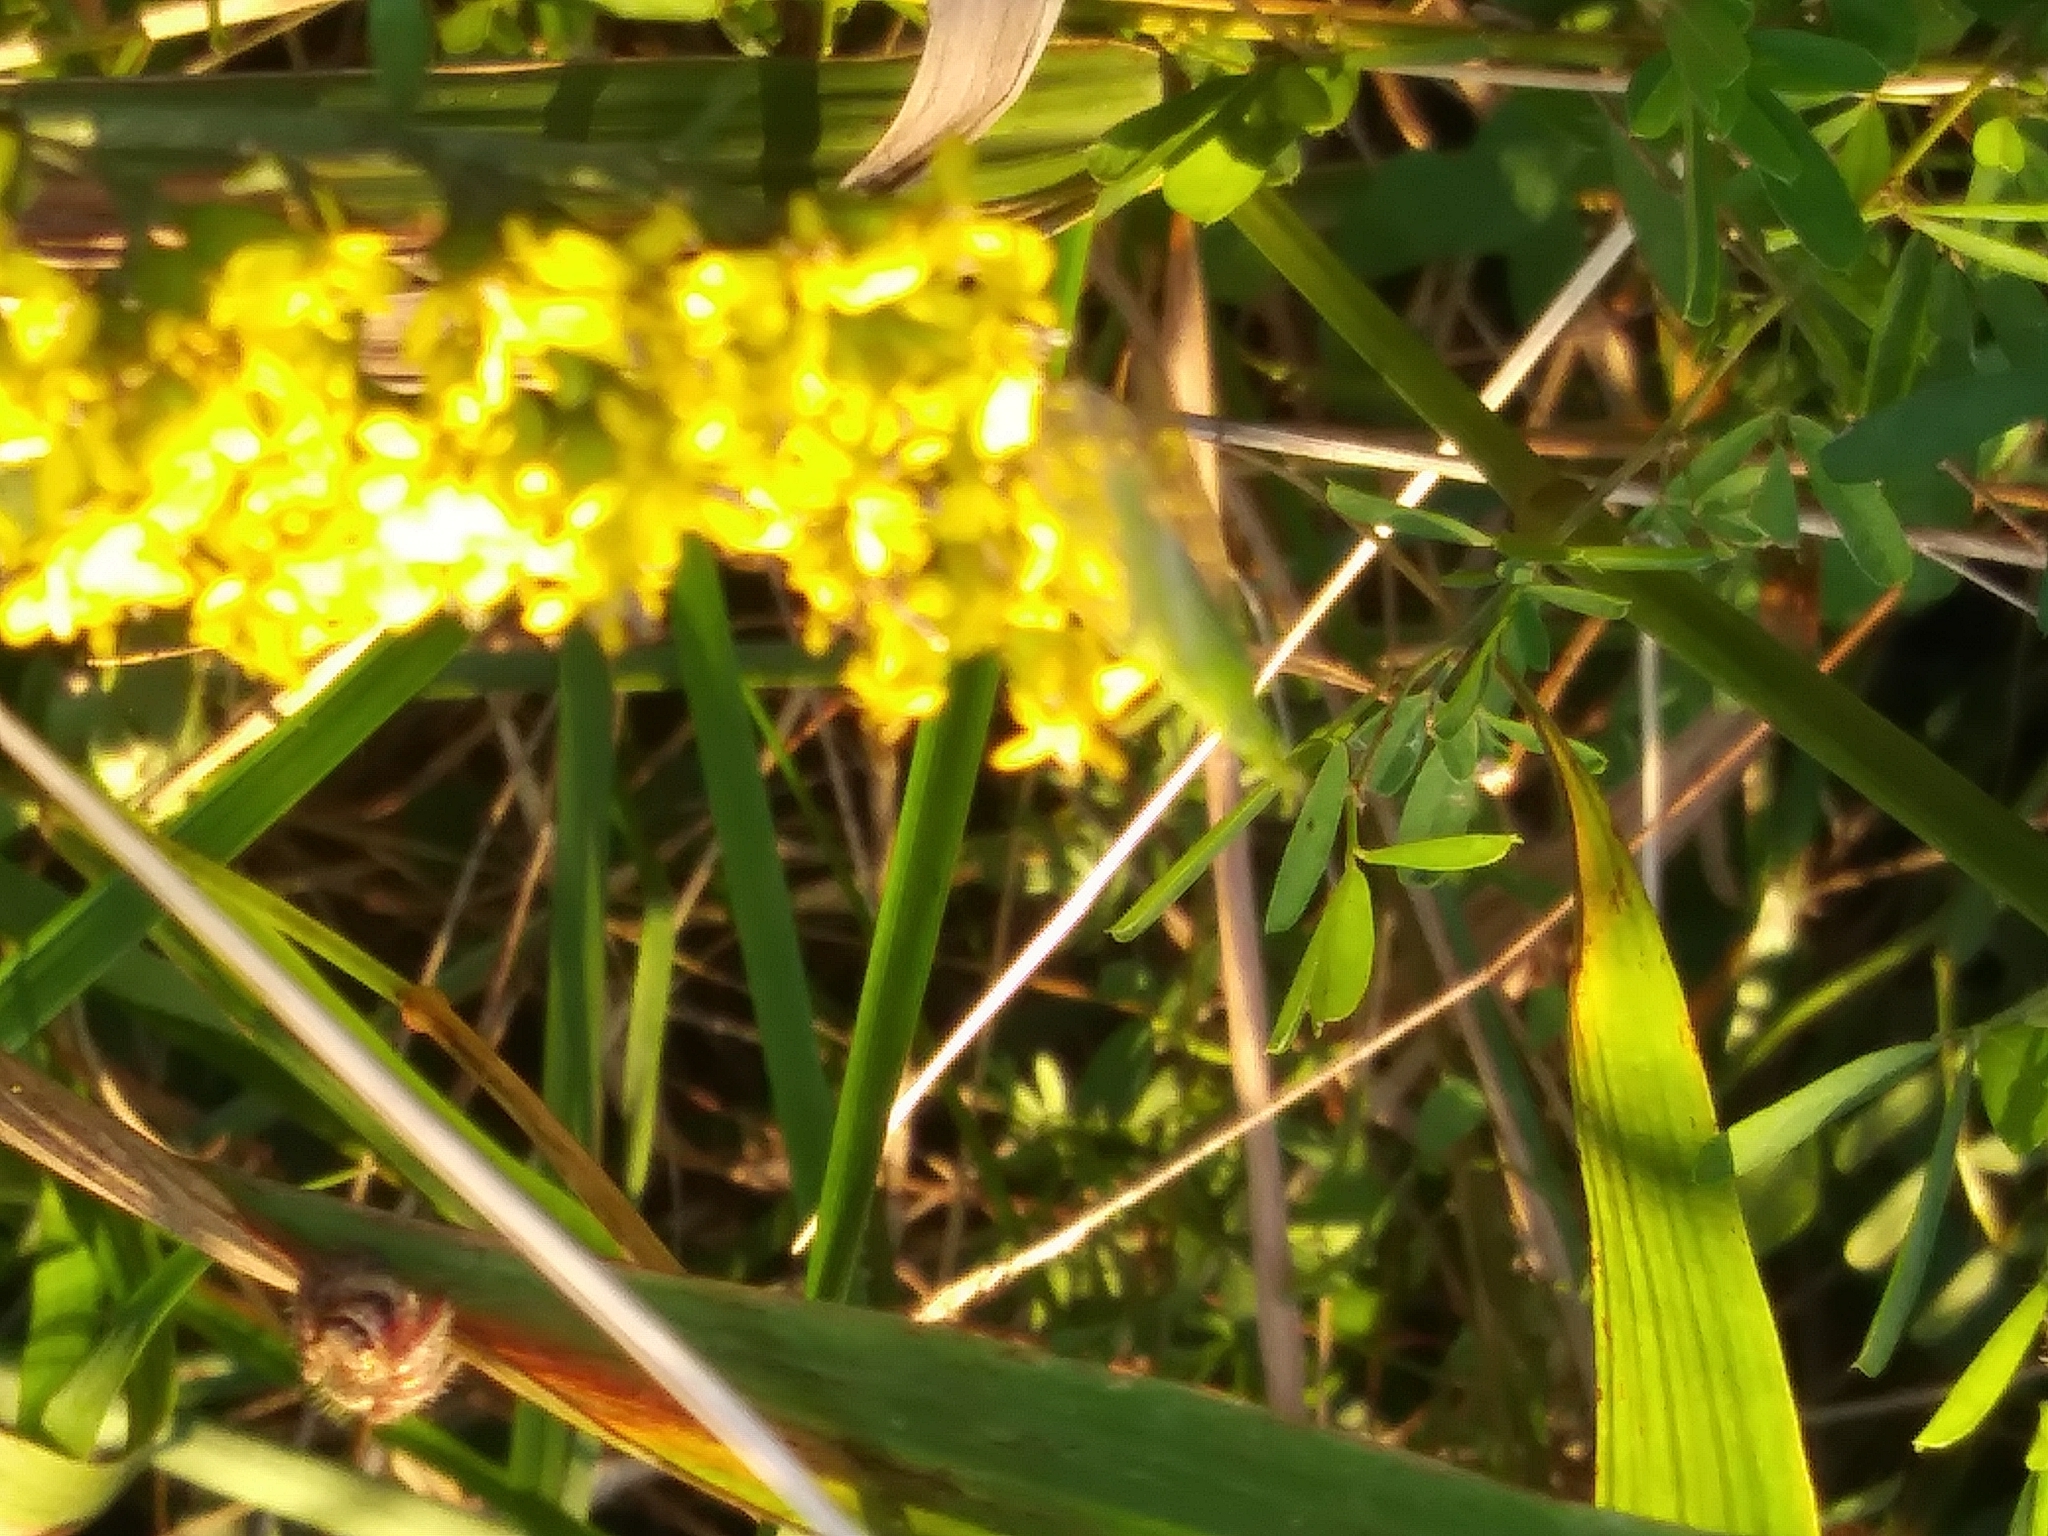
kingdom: Animalia
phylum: Arthropoda
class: Insecta
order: Hemiptera
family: Dictyopharidae
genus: Rhynchomitra
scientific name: Rhynchomitra microrhina
